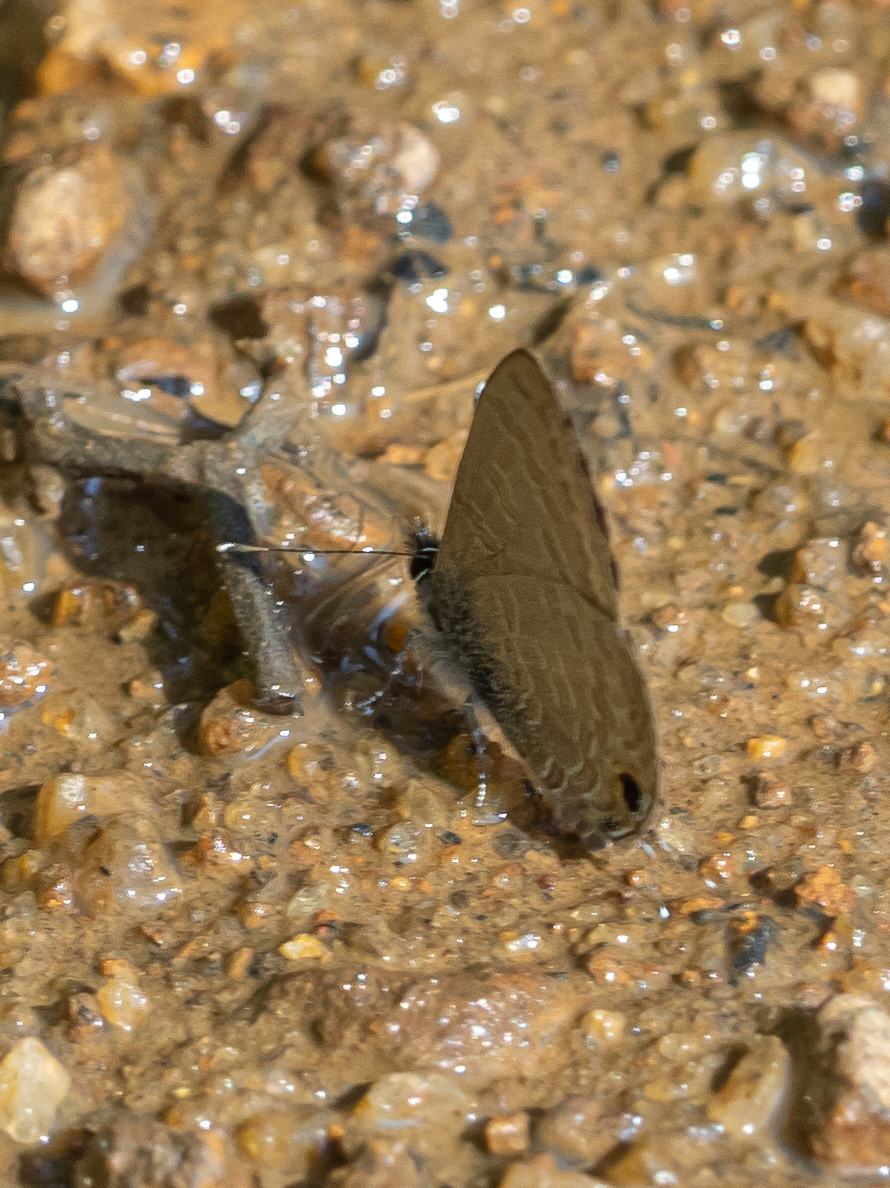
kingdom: Animalia
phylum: Arthropoda
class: Insecta
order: Lepidoptera
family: Lycaenidae
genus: Prosotas
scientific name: Prosotas nora
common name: Common line blue
